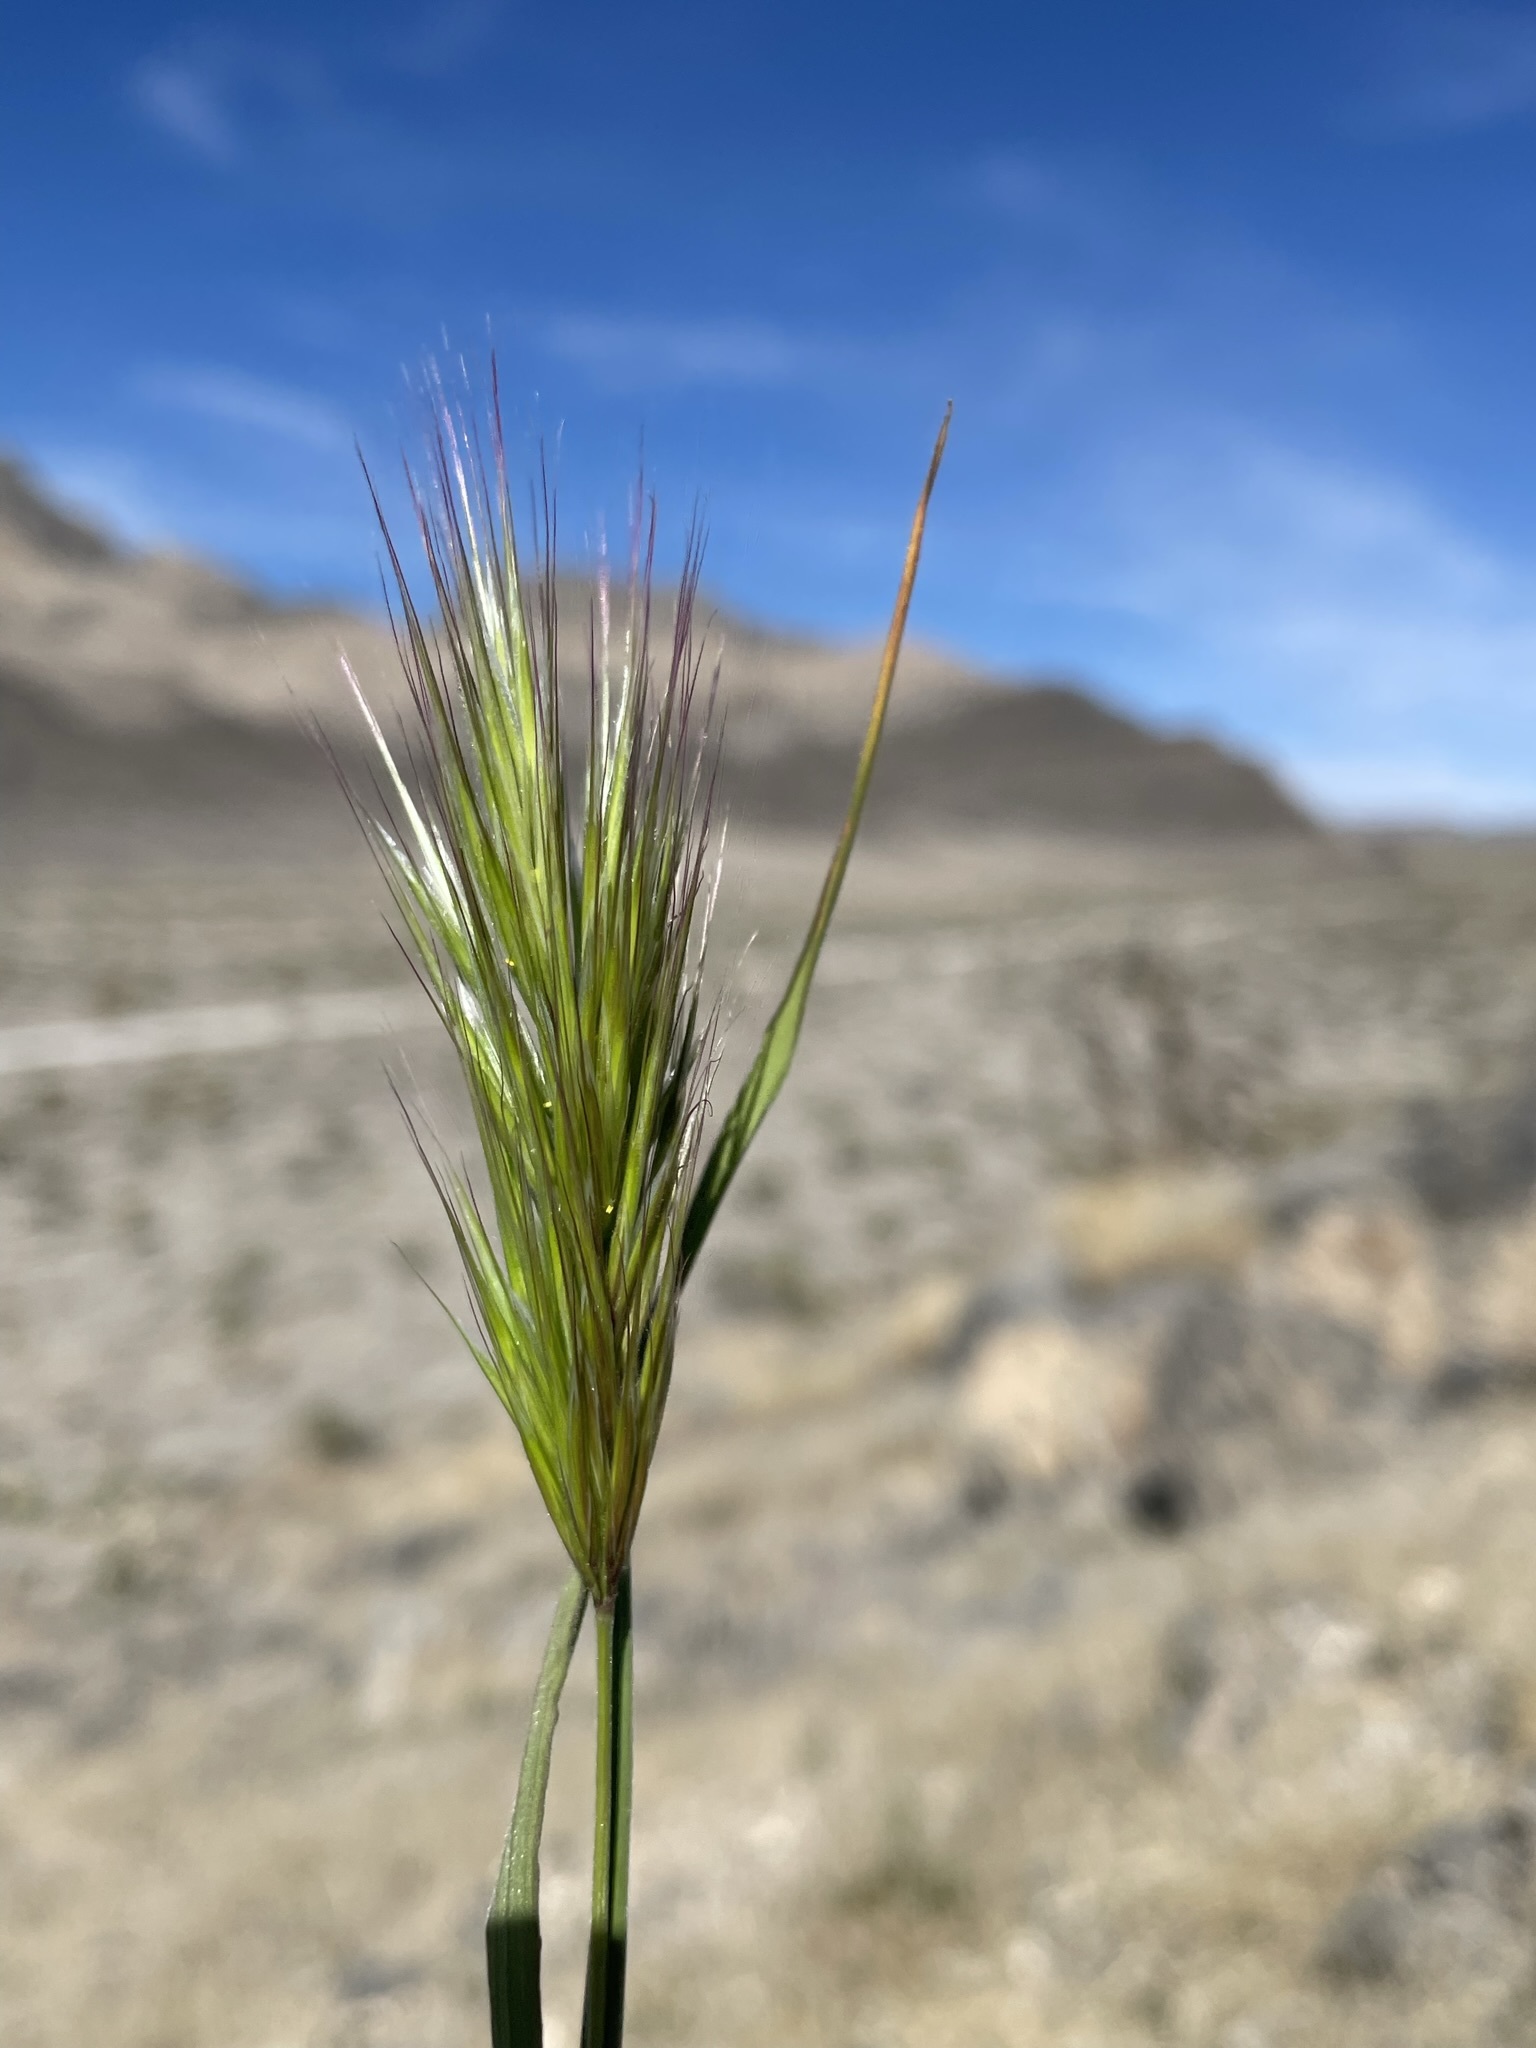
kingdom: Plantae
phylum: Tracheophyta
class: Liliopsida
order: Poales
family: Poaceae
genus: Bromus
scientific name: Bromus rubens
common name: Red brome
